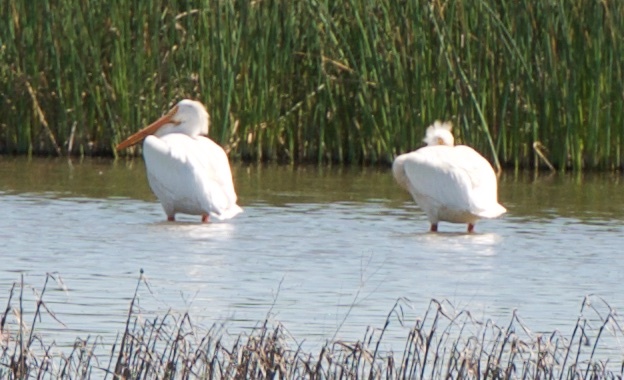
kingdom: Animalia
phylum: Chordata
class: Aves
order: Pelecaniformes
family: Pelecanidae
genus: Pelecanus
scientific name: Pelecanus erythrorhynchos
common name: American white pelican
